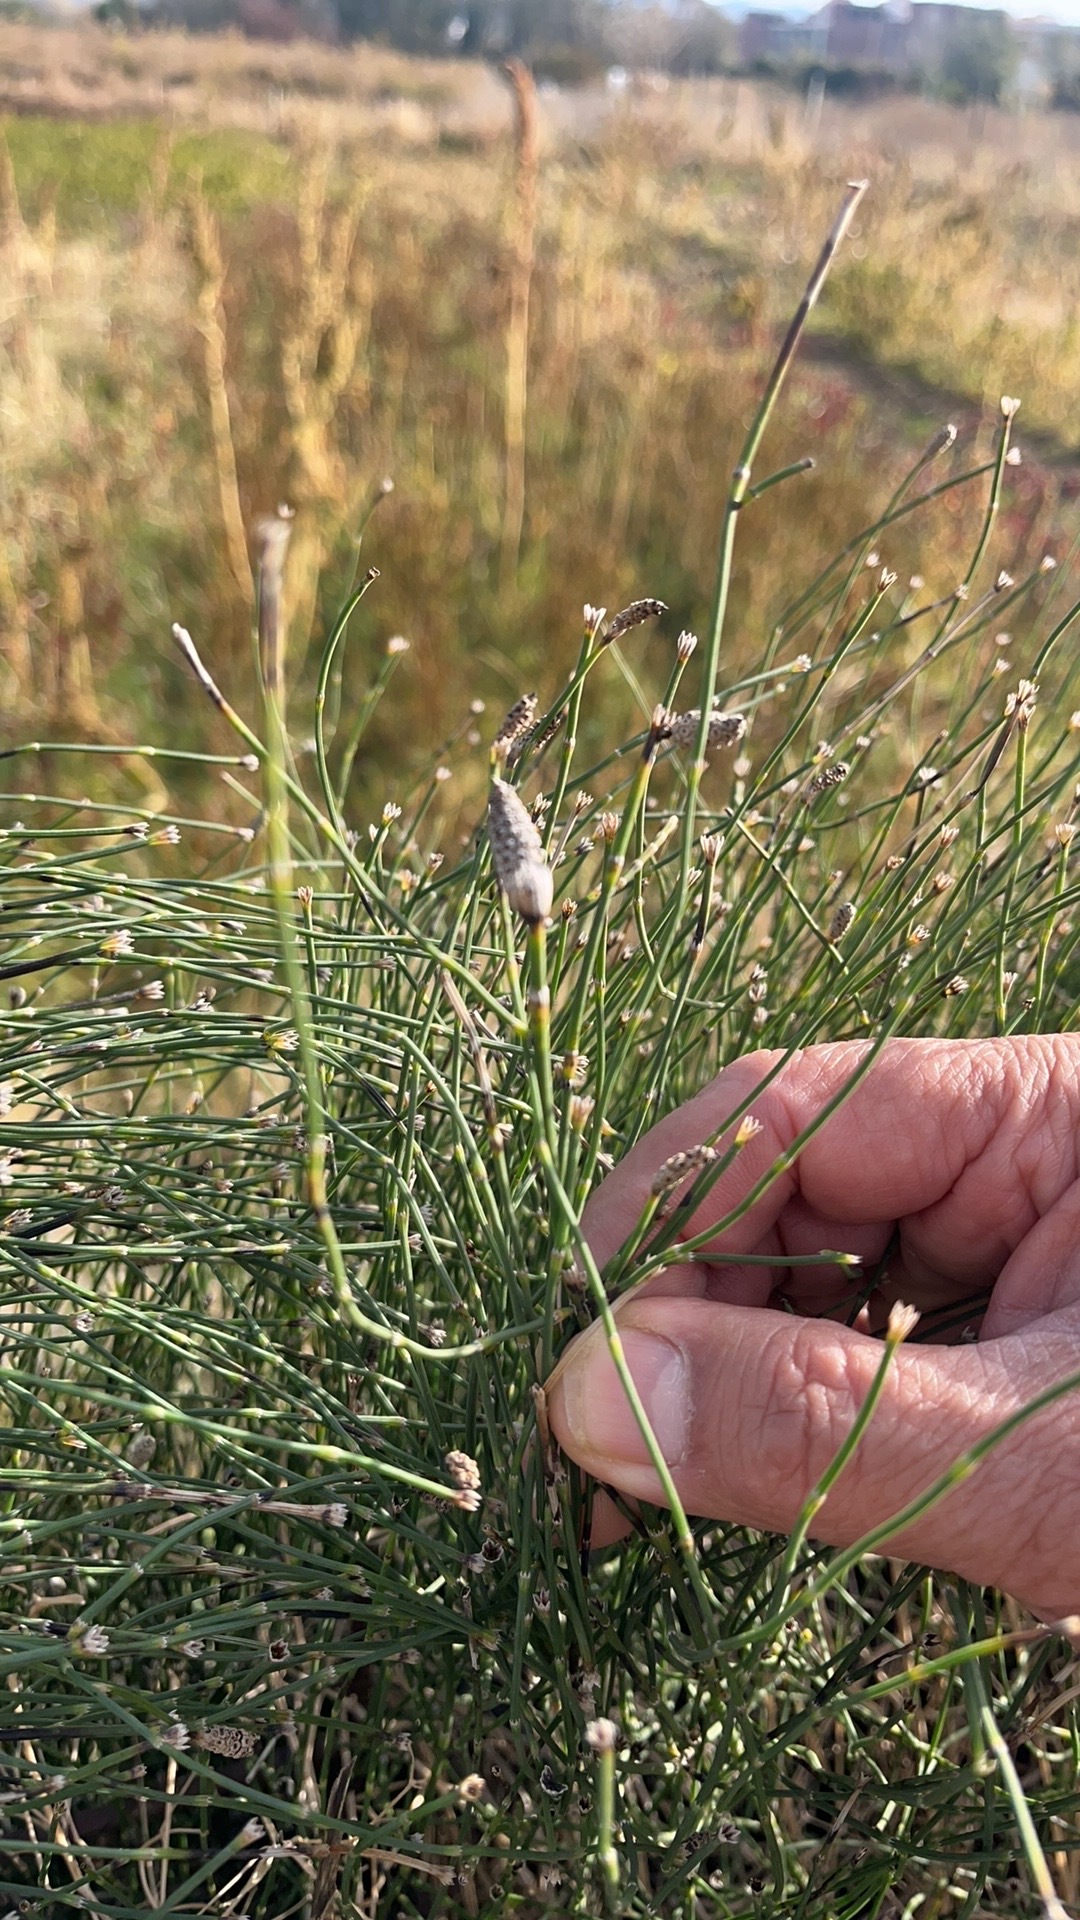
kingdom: Plantae
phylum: Tracheophyta
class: Polypodiopsida
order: Equisetales
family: Equisetaceae
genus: Equisetum
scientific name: Equisetum ramosissimum
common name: Branched horsetail
